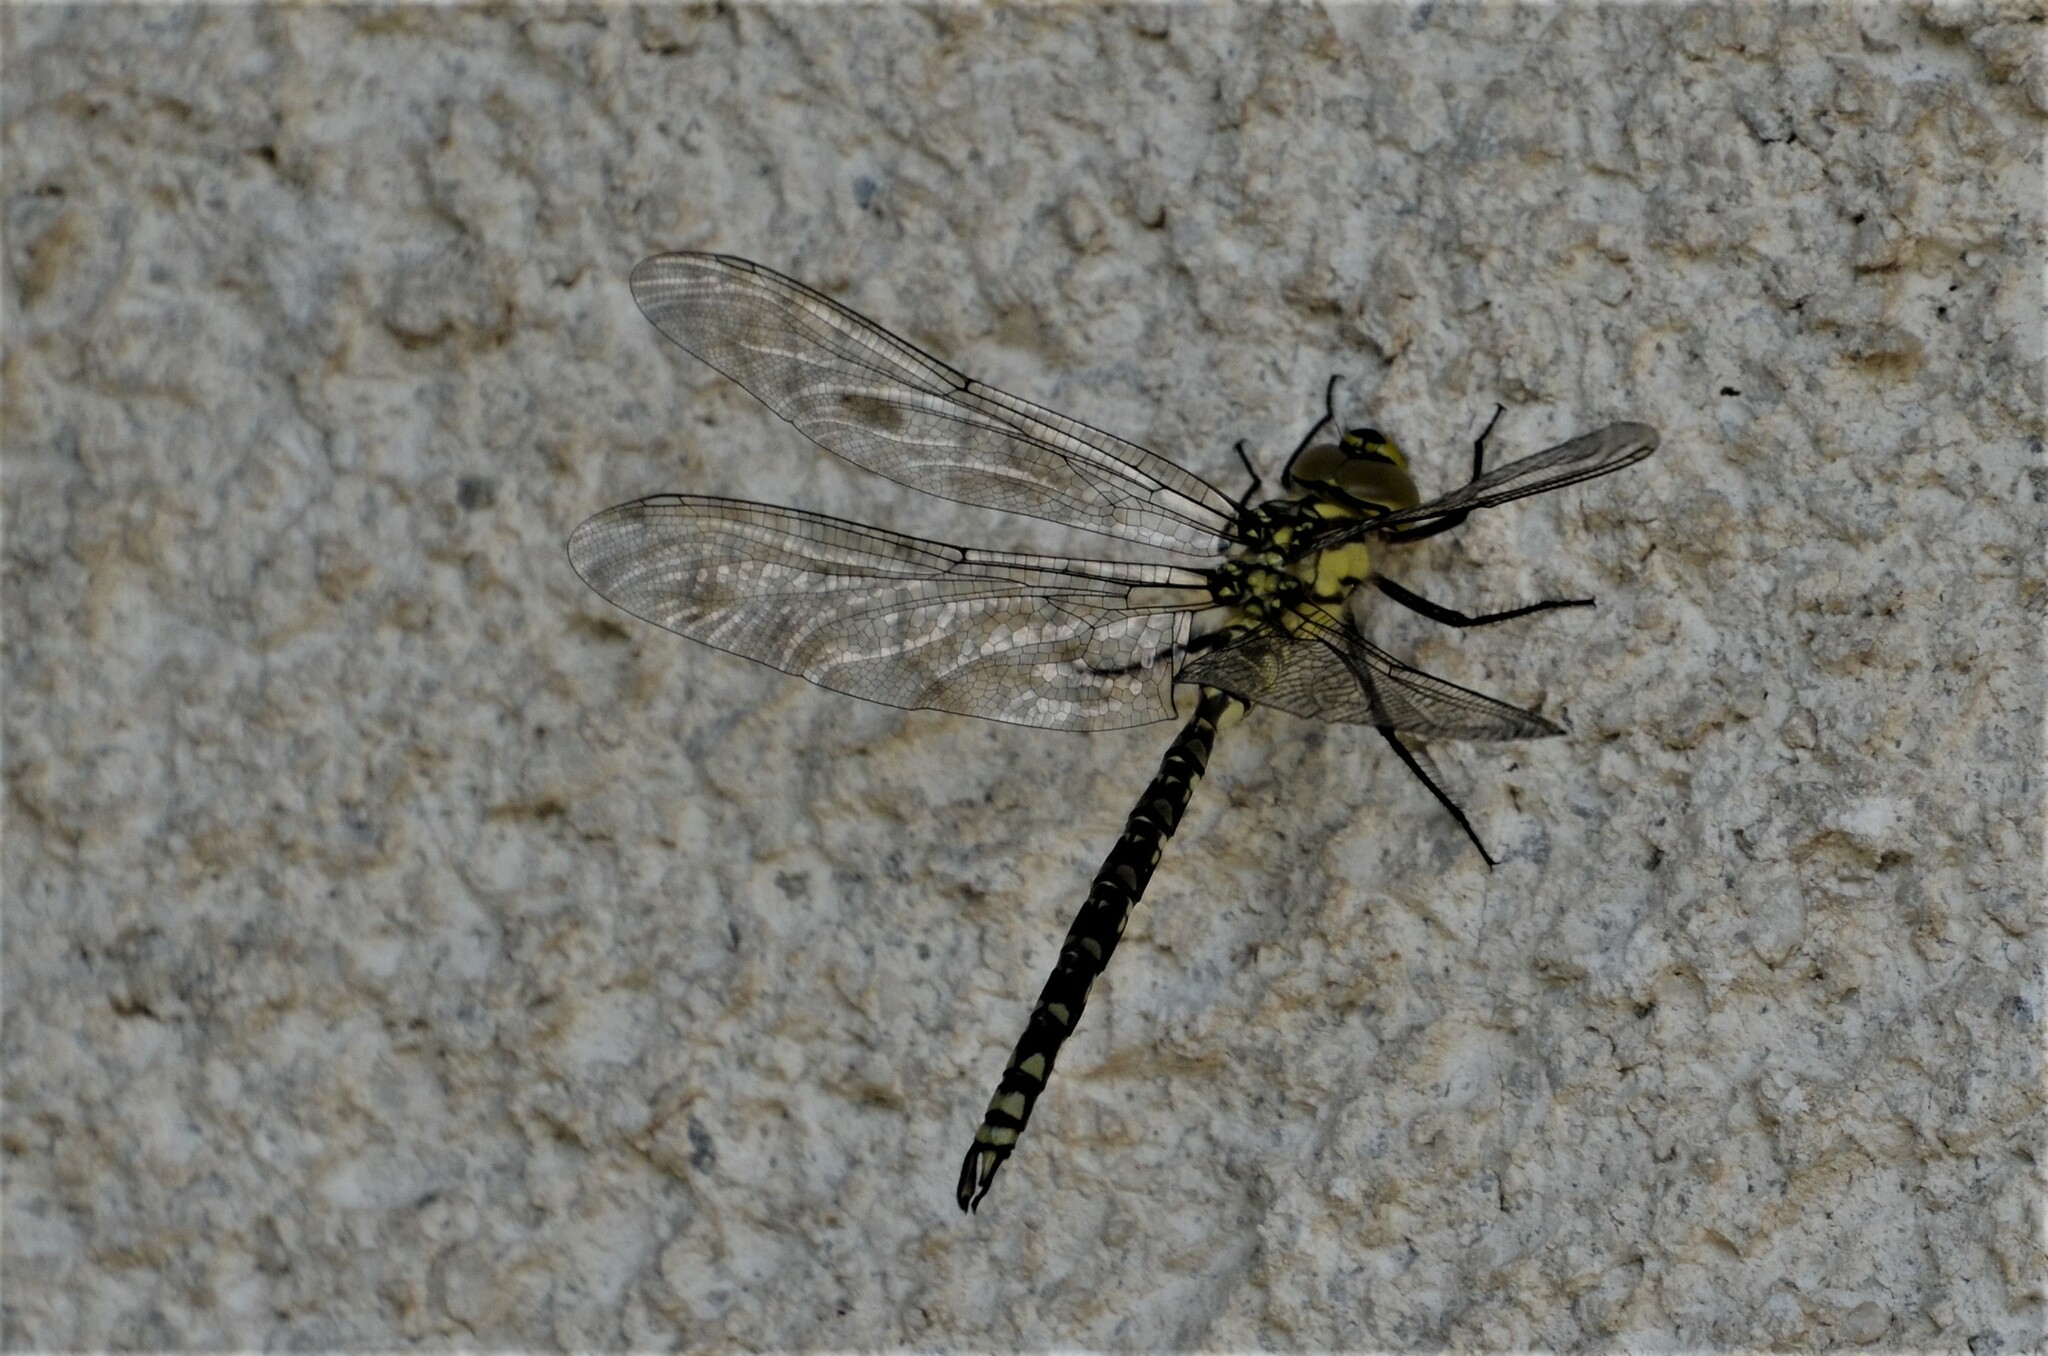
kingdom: Animalia
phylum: Arthropoda
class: Insecta
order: Odonata
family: Aeshnidae
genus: Aeshna
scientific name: Aeshna cyanea
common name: Southern hawker
